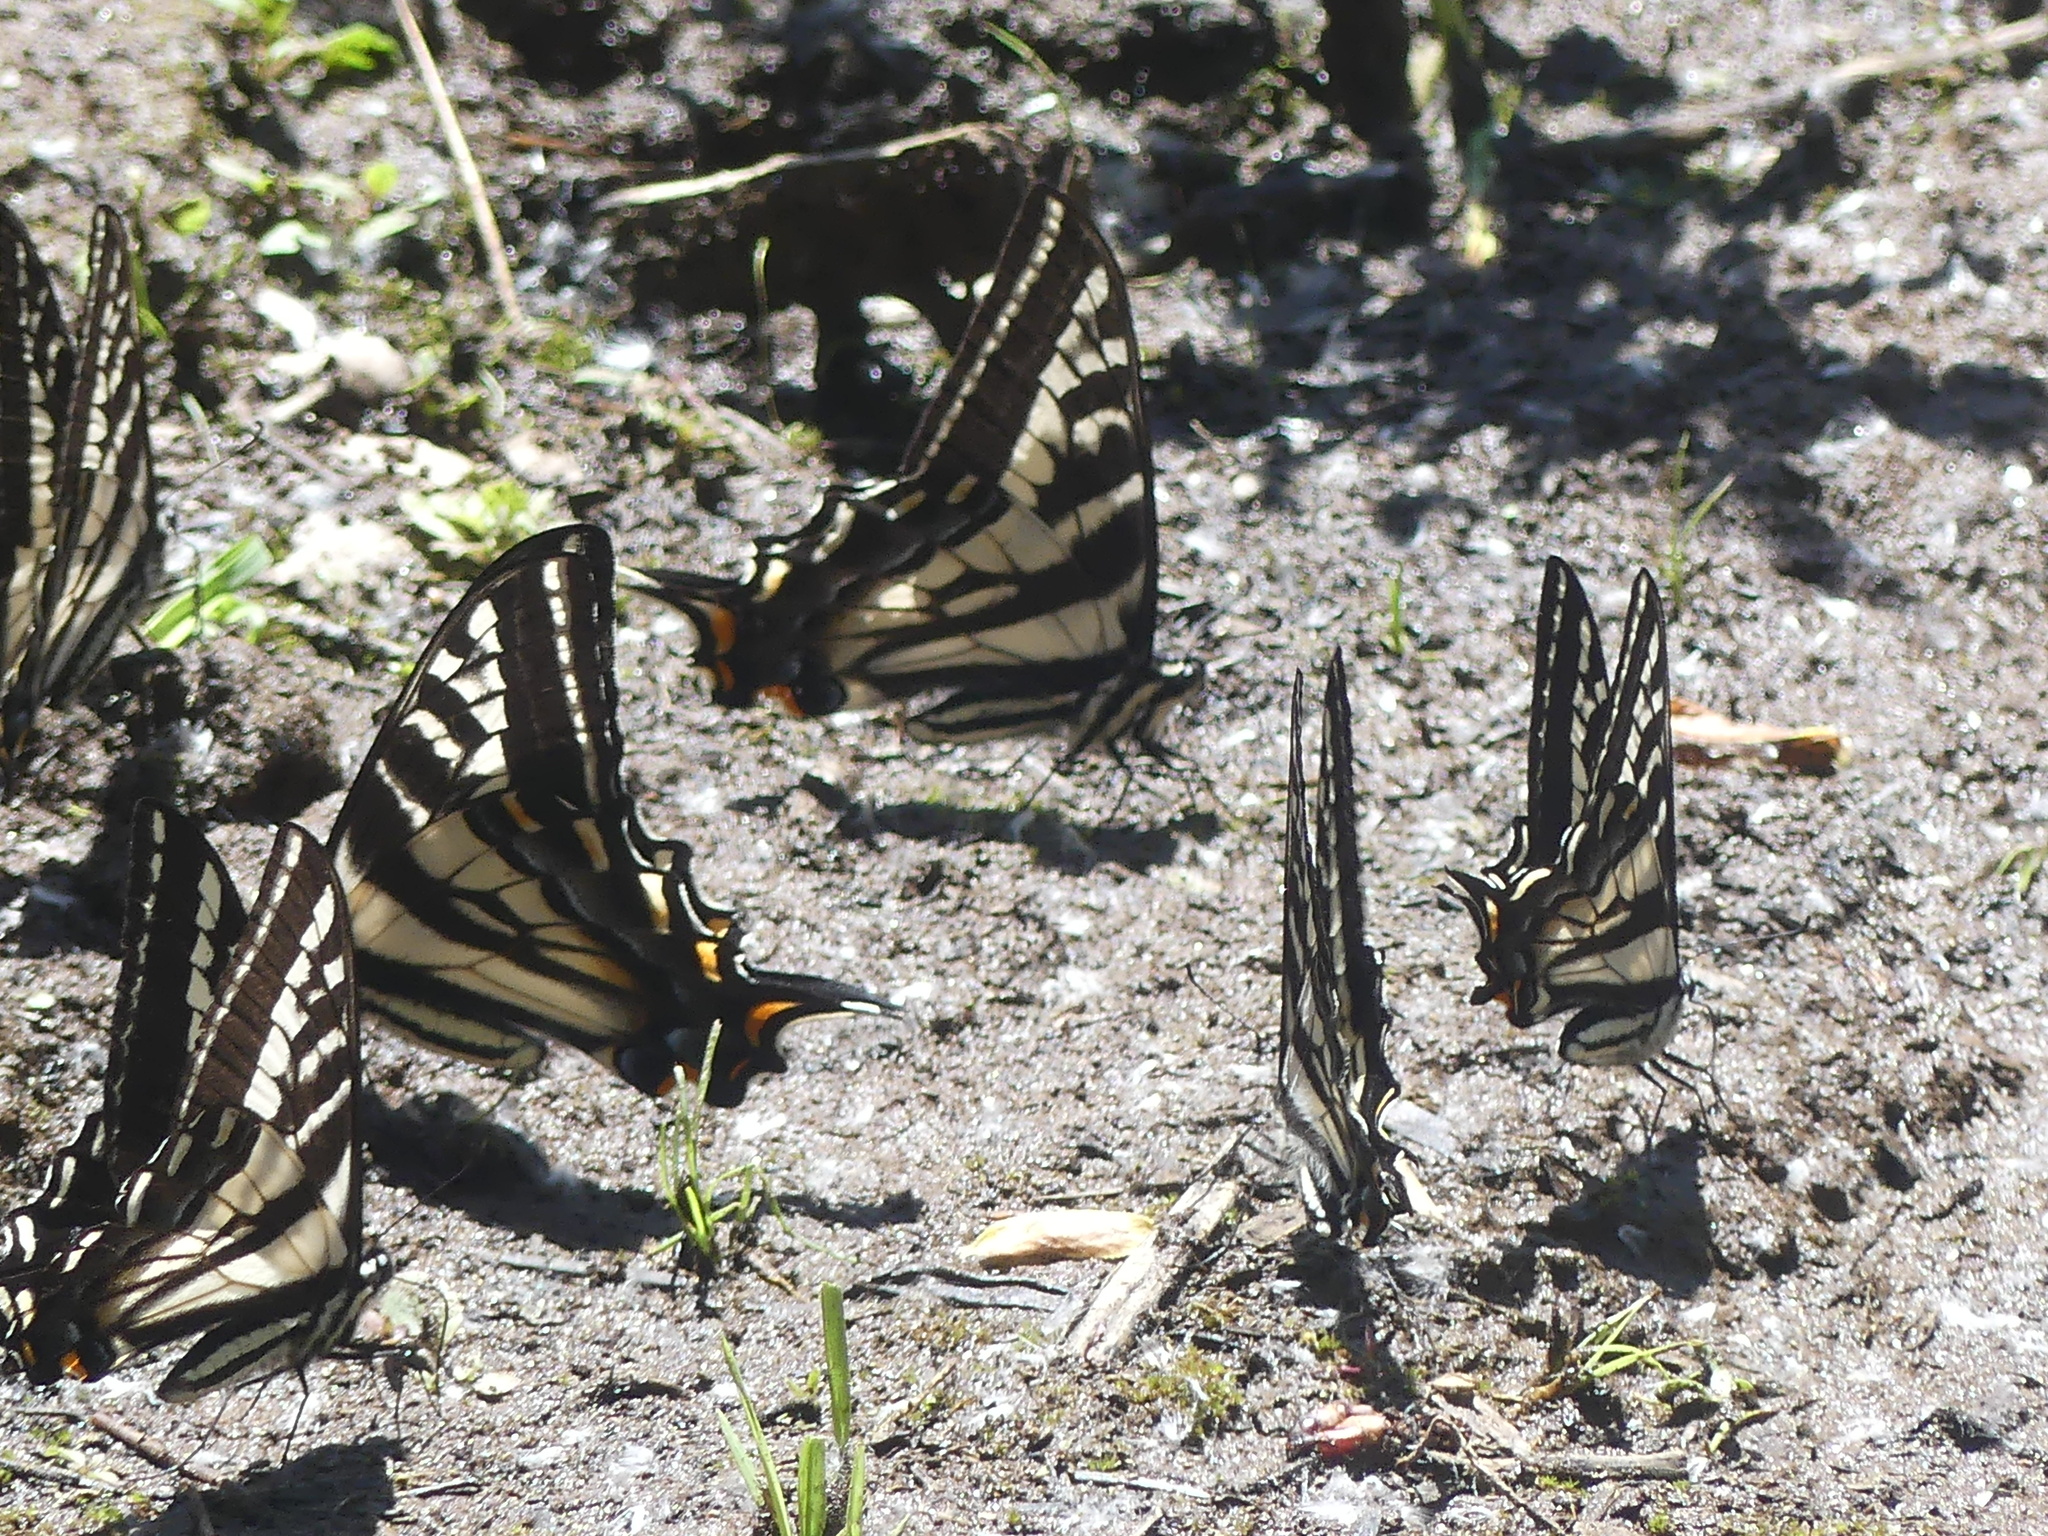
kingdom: Animalia
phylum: Arthropoda
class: Insecta
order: Lepidoptera
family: Papilionidae
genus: Papilio
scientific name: Papilio eurymedon
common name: Pale tiger swallowtail
